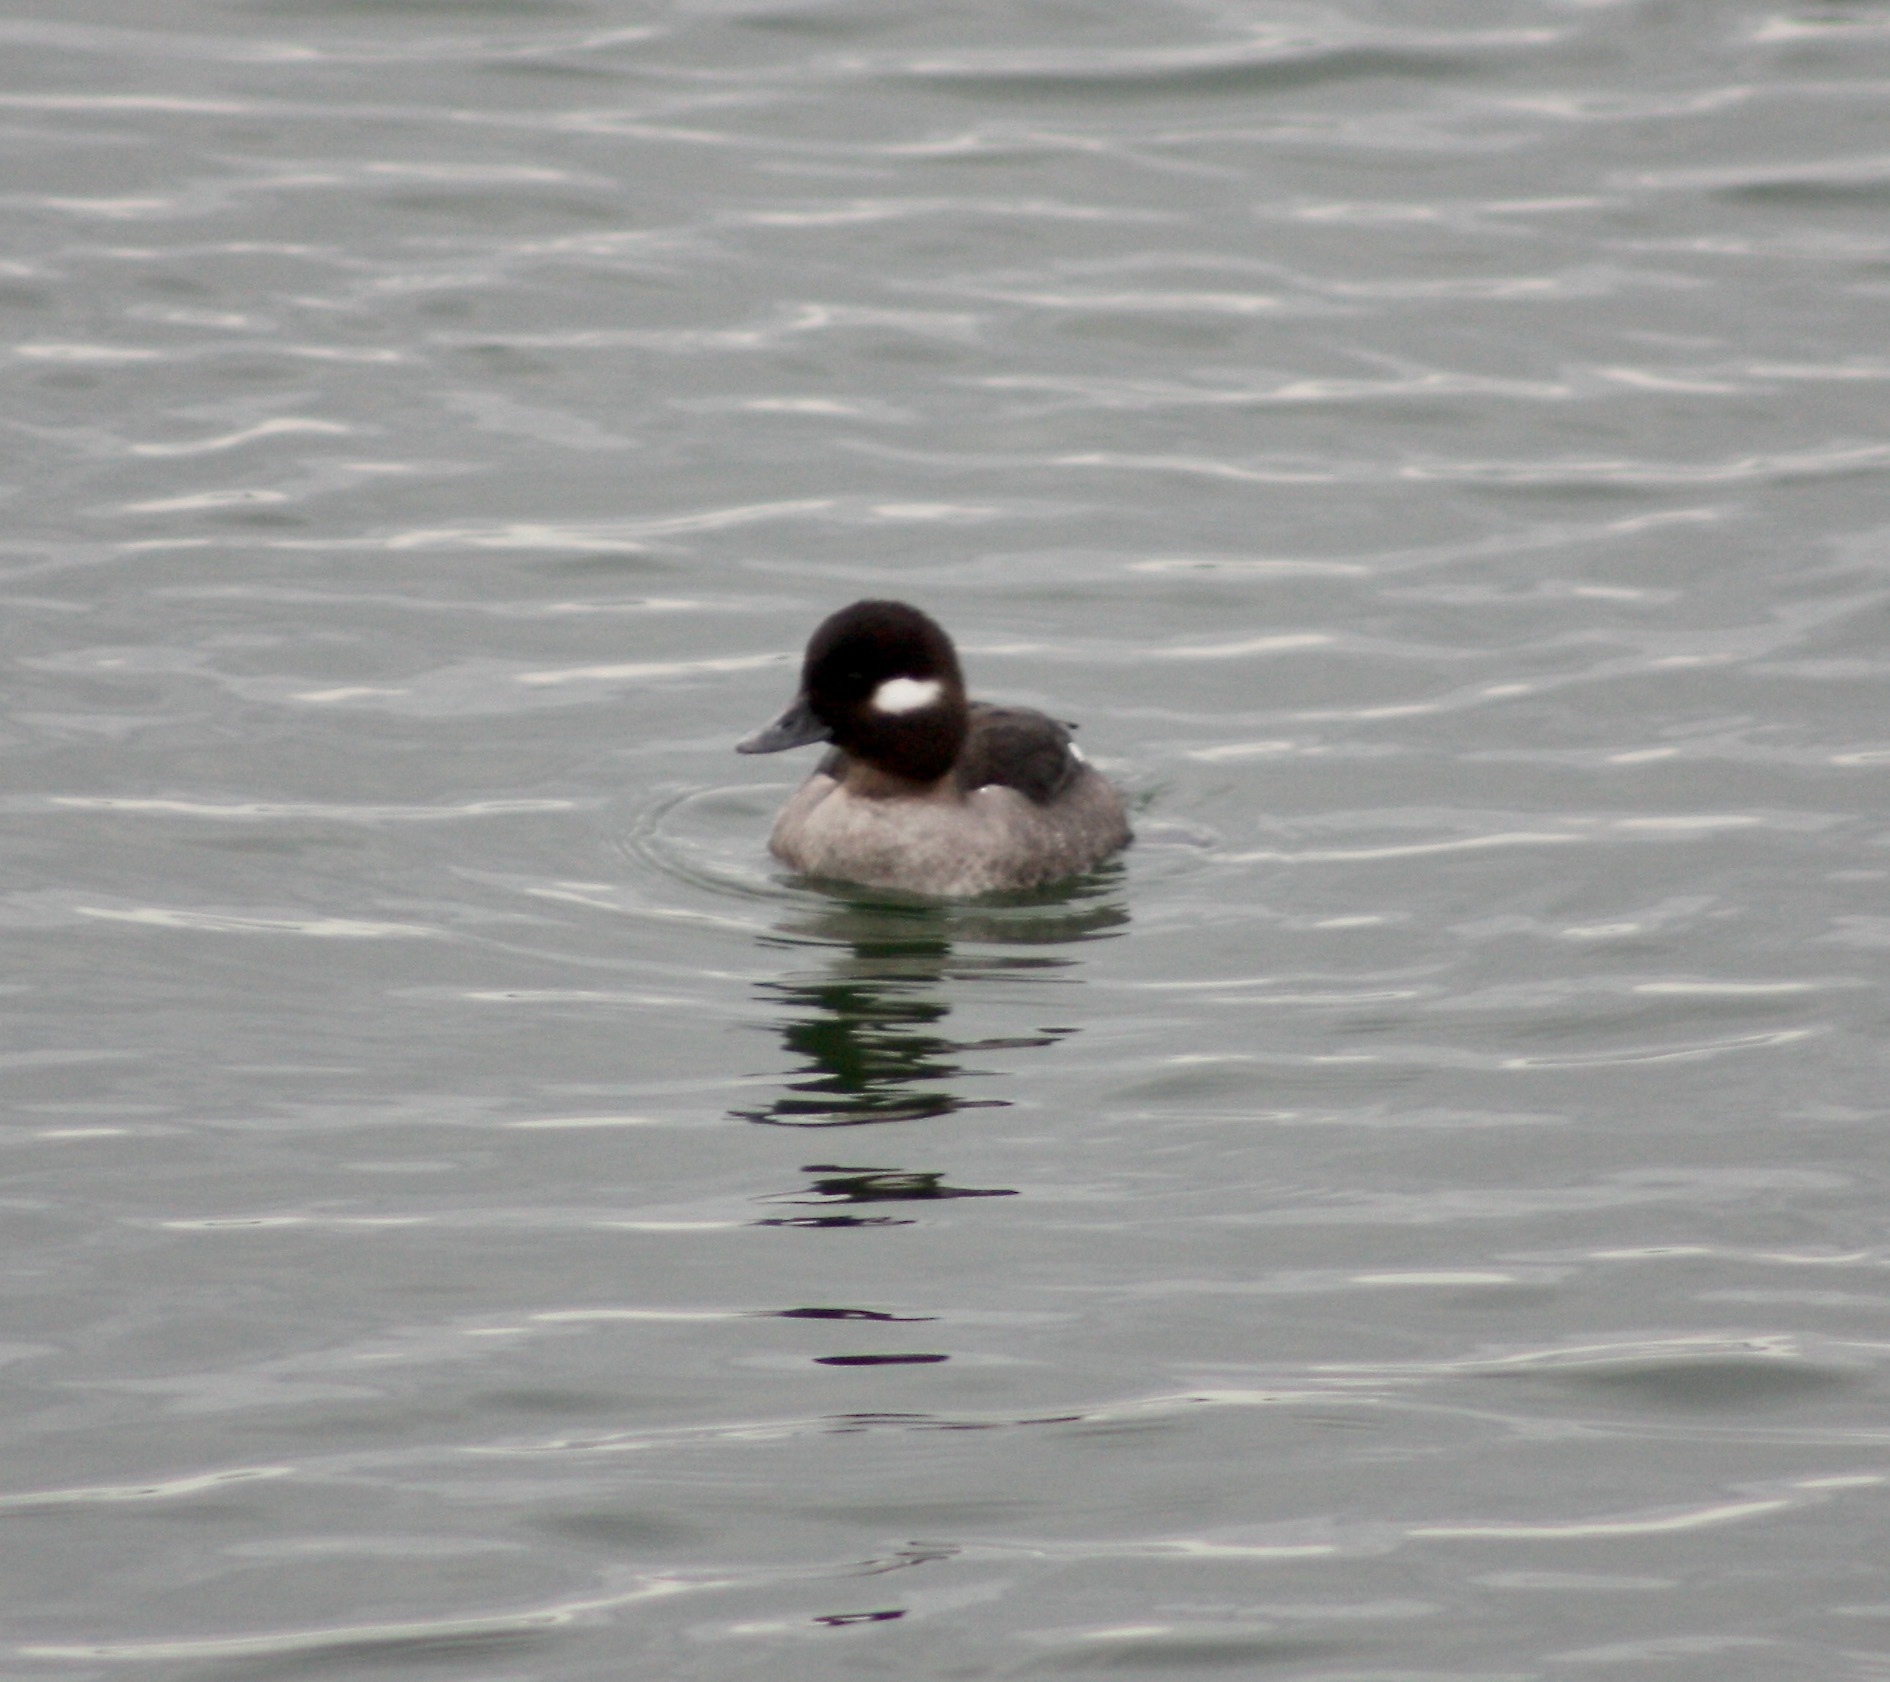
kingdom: Animalia
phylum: Chordata
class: Aves
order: Anseriformes
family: Anatidae
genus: Bucephala
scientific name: Bucephala albeola
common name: Bufflehead
